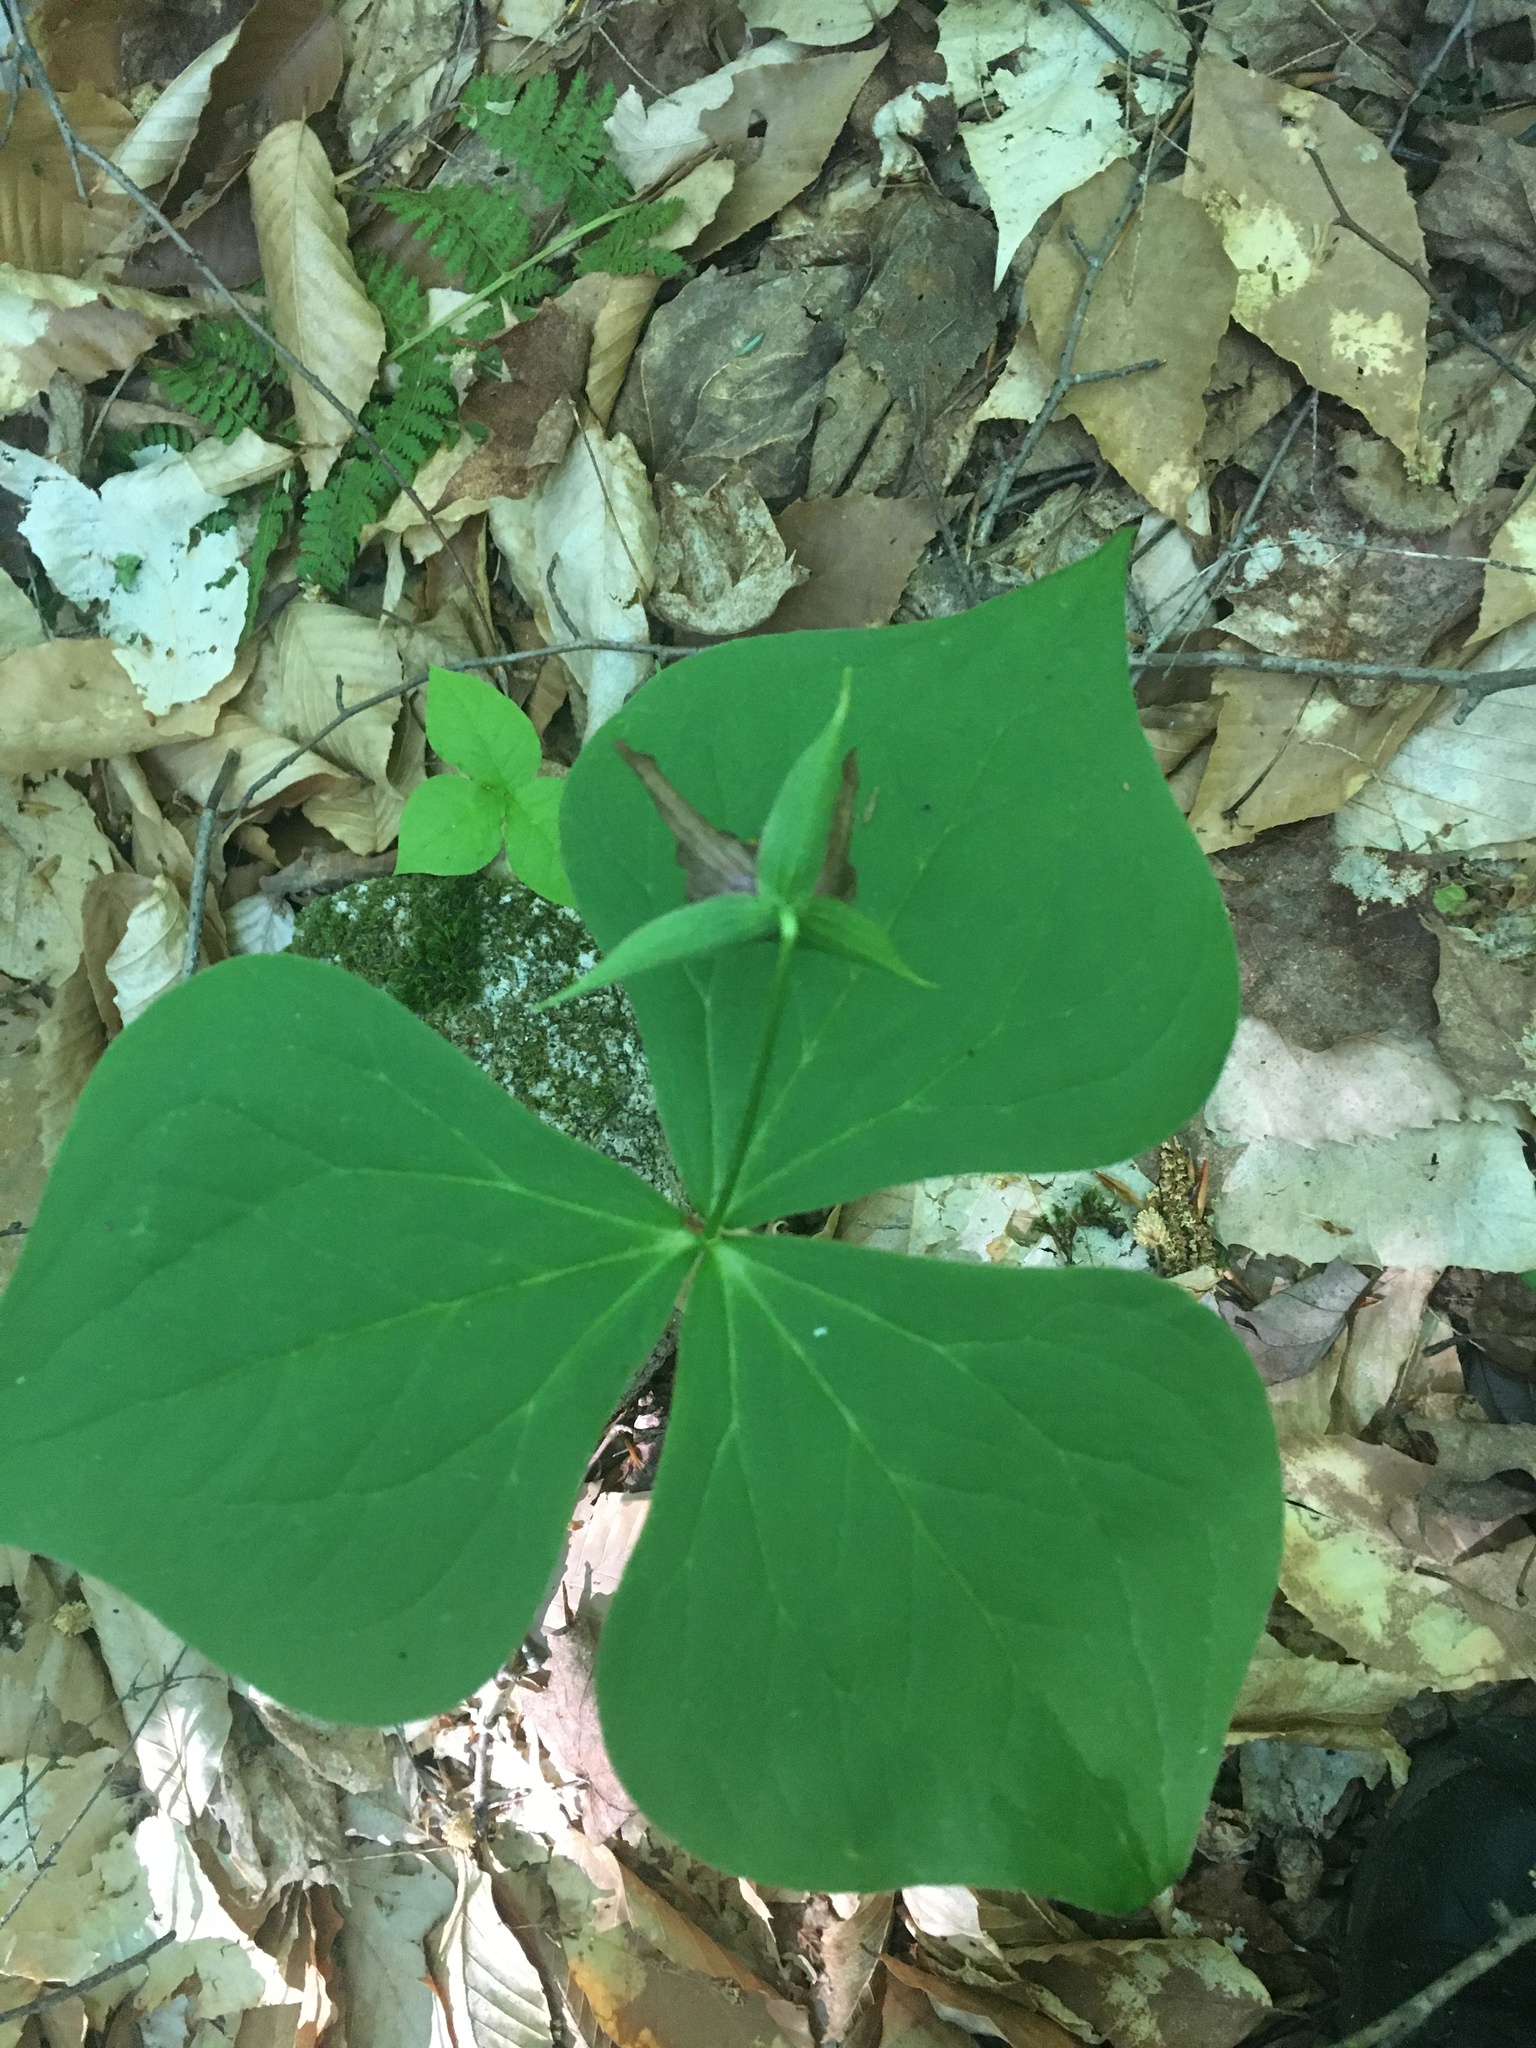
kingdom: Plantae
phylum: Tracheophyta
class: Liliopsida
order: Liliales
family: Melanthiaceae
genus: Trillium
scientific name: Trillium erectum
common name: Purple trillium
